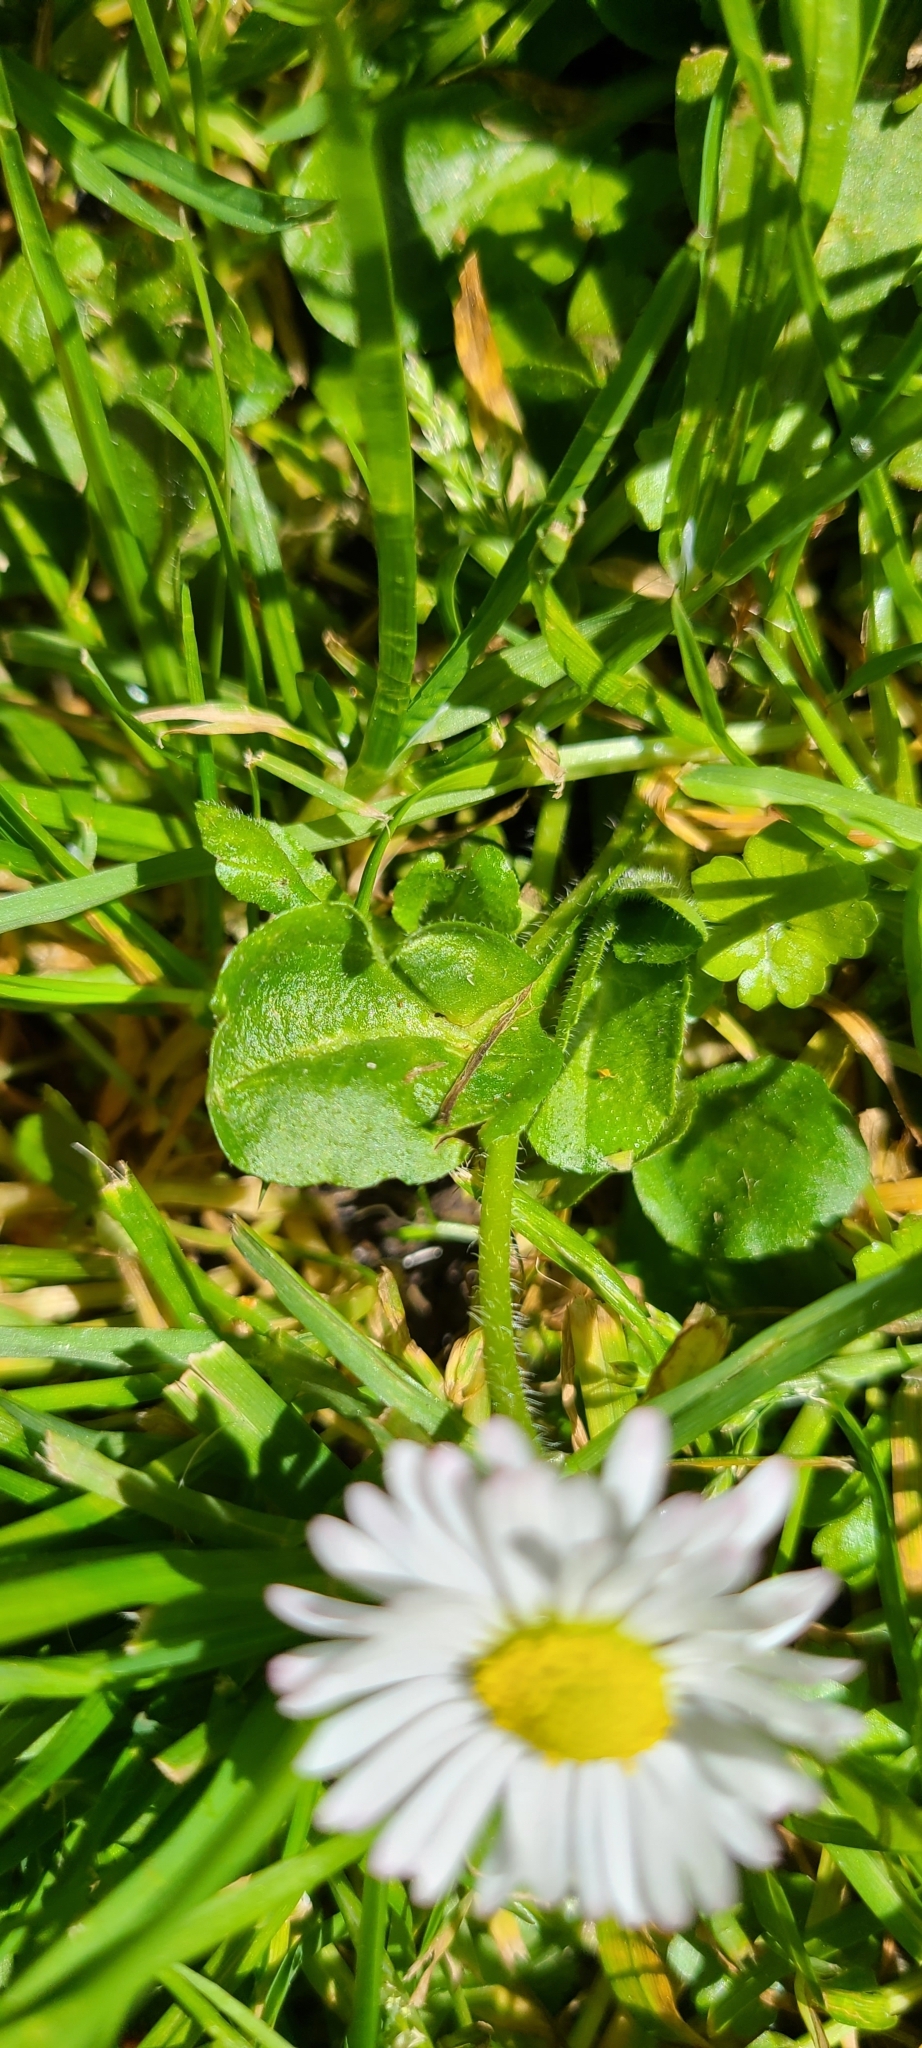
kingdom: Plantae
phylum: Tracheophyta
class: Magnoliopsida
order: Asterales
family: Asteraceae
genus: Bellis
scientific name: Bellis perennis
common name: Lawndaisy
